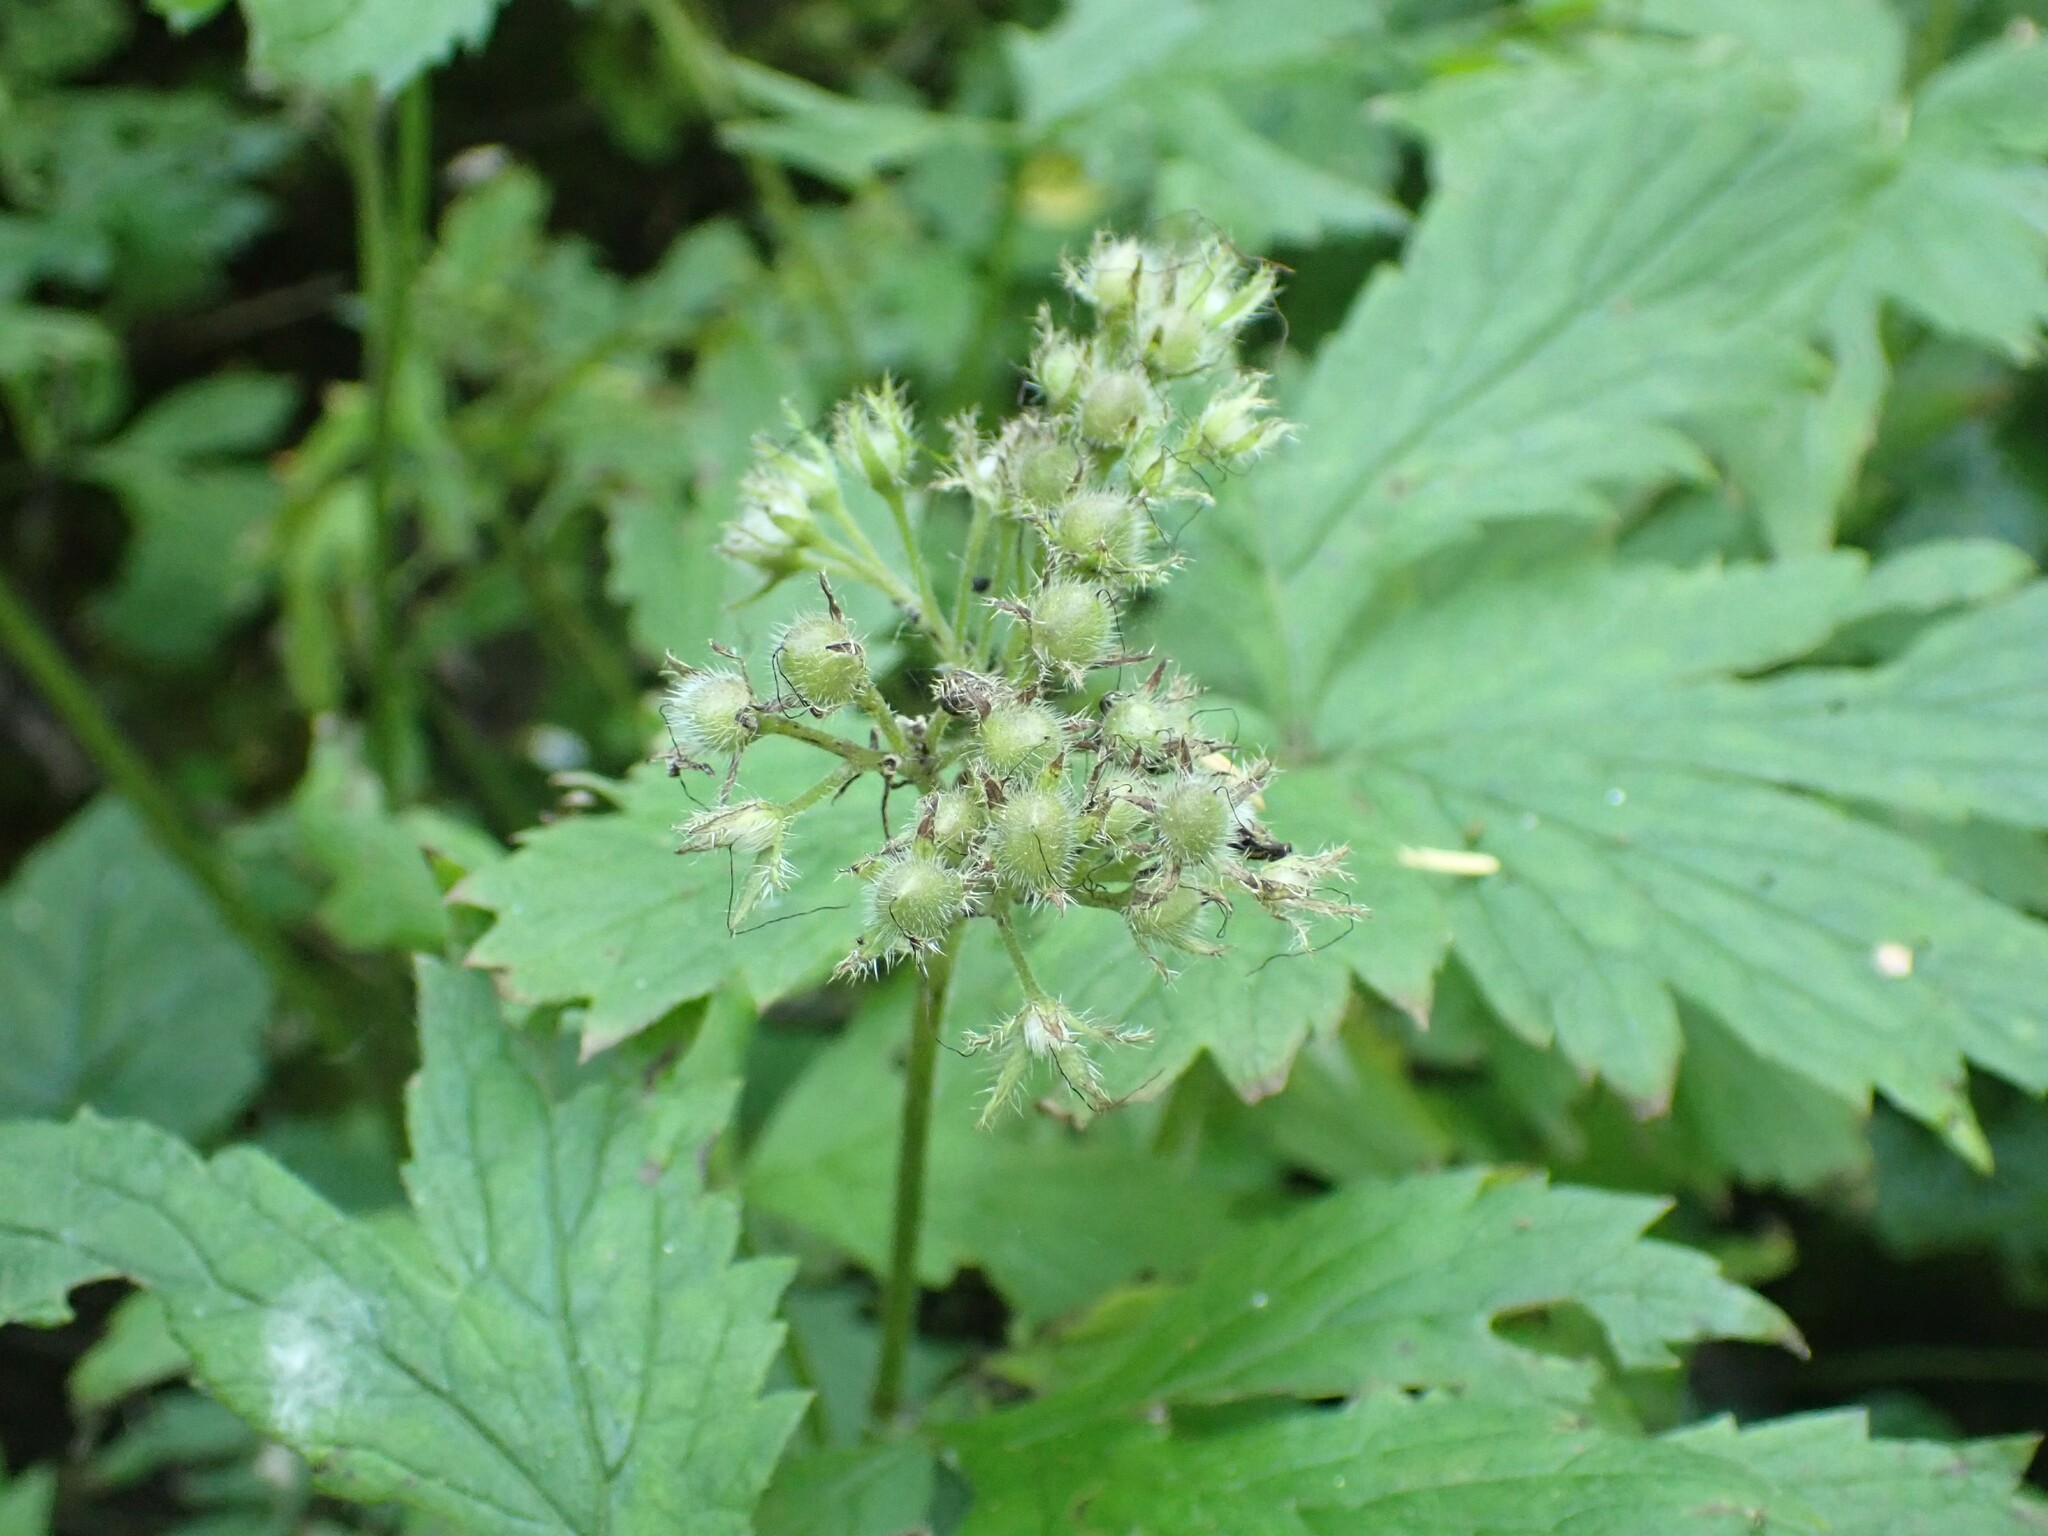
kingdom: Plantae
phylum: Tracheophyta
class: Magnoliopsida
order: Boraginales
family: Hydrophyllaceae
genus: Hydrophyllum
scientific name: Hydrophyllum tenuipes
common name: Pacific waterleaf
